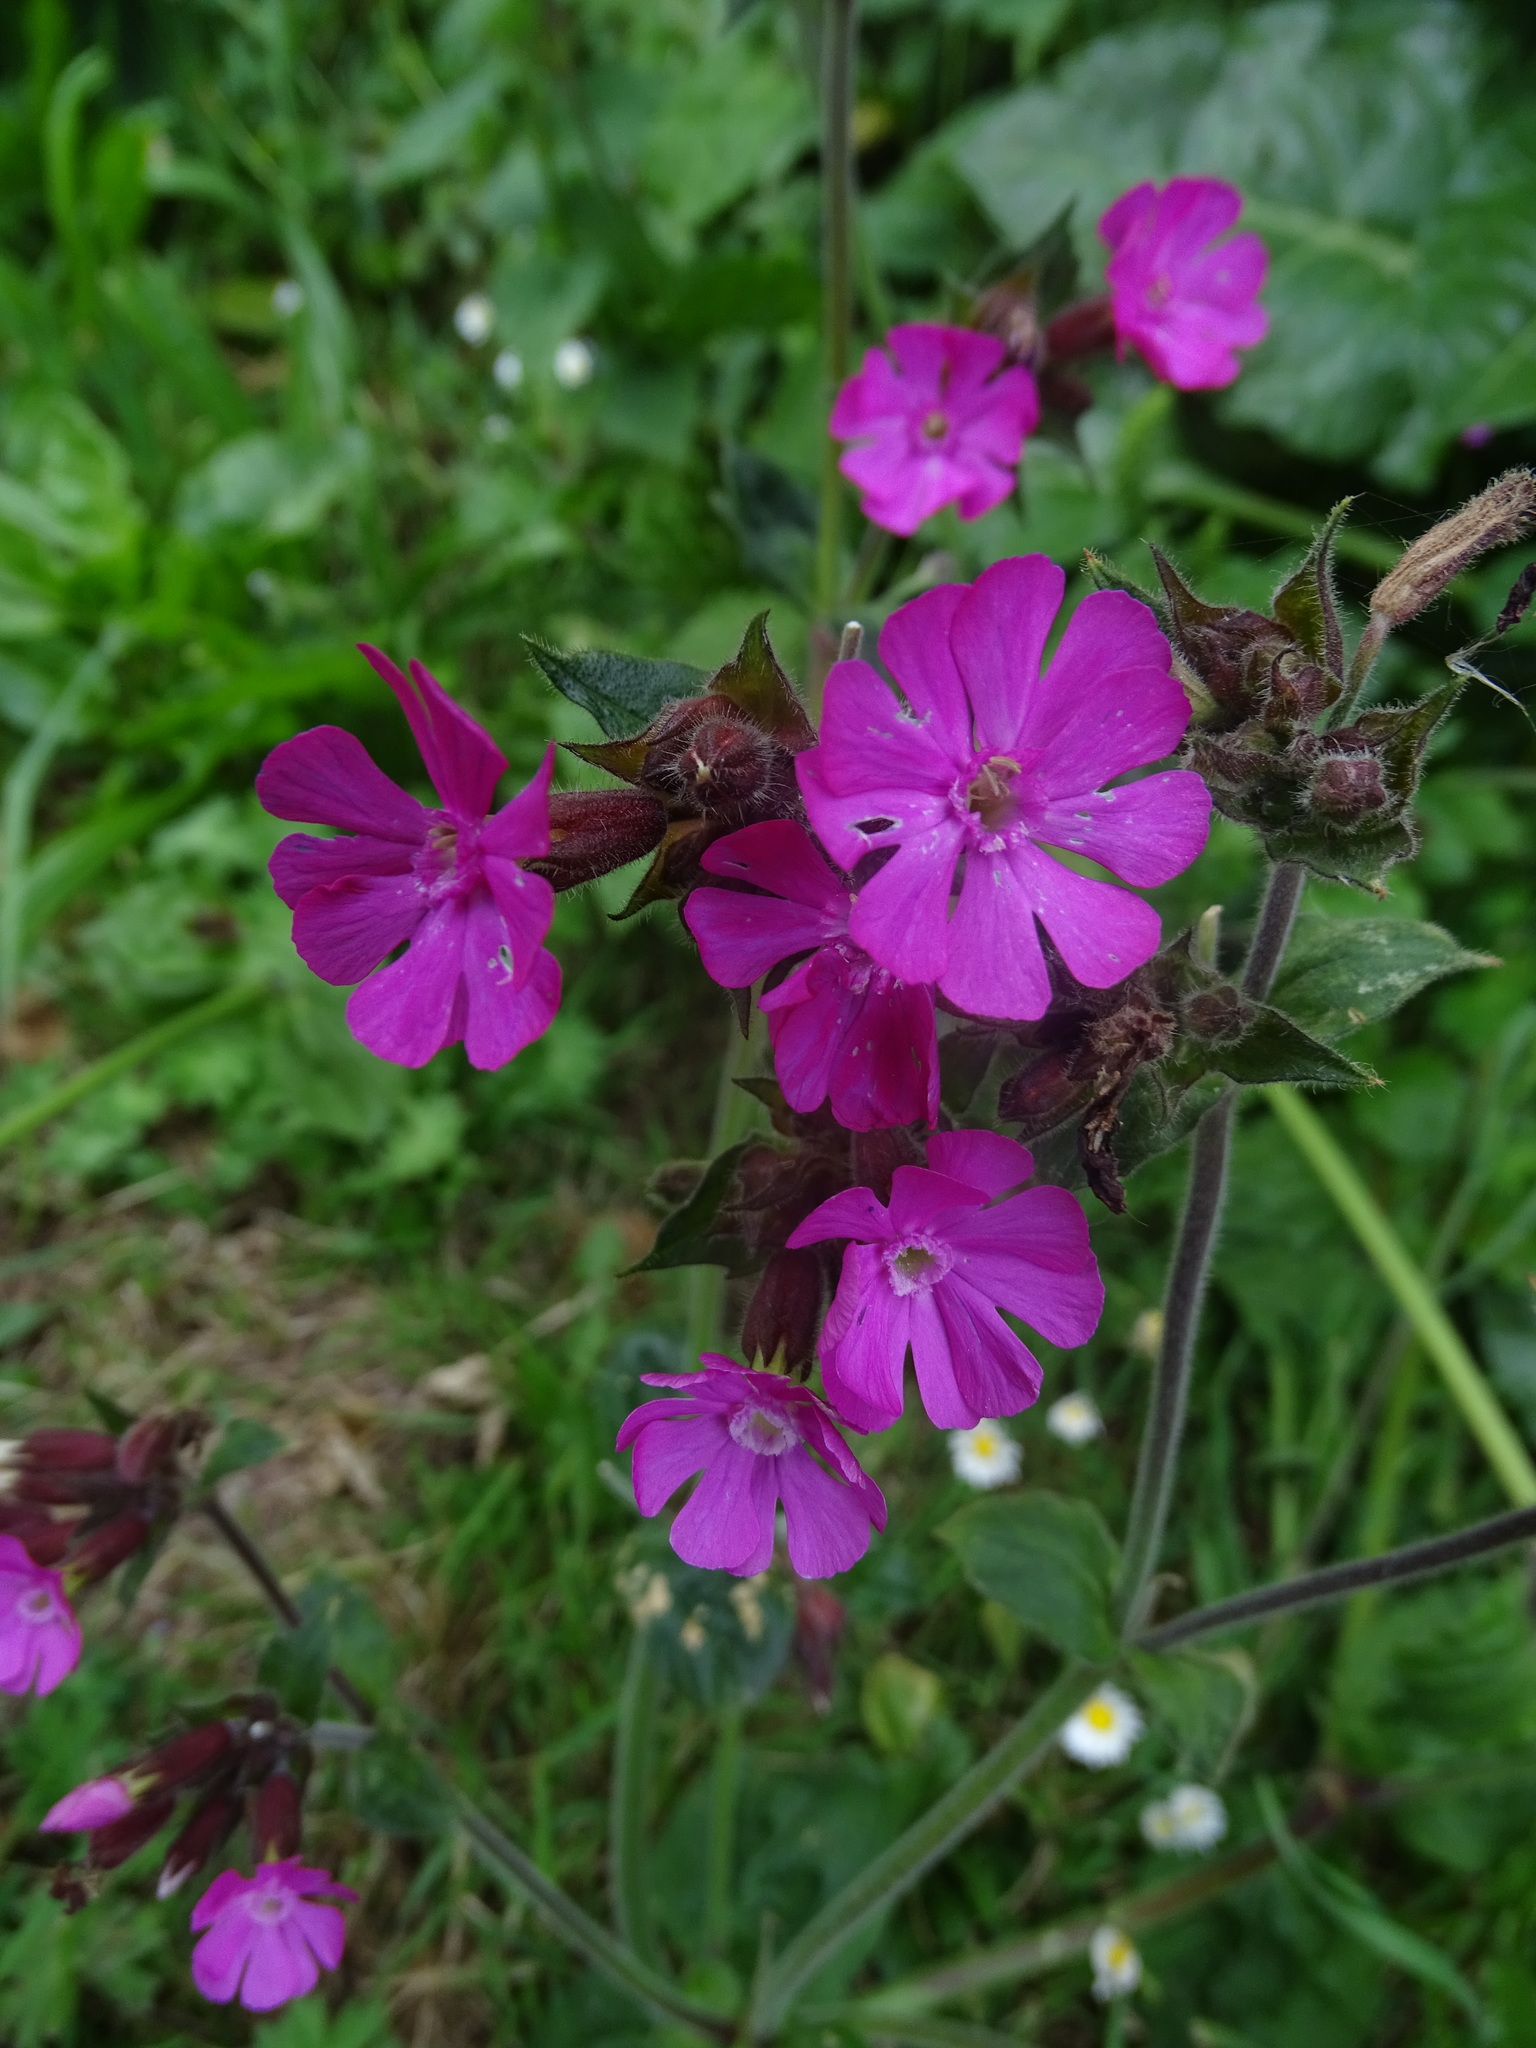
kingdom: Plantae
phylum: Tracheophyta
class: Magnoliopsida
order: Caryophyllales
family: Caryophyllaceae
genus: Silene
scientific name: Silene dioica
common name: Red campion
